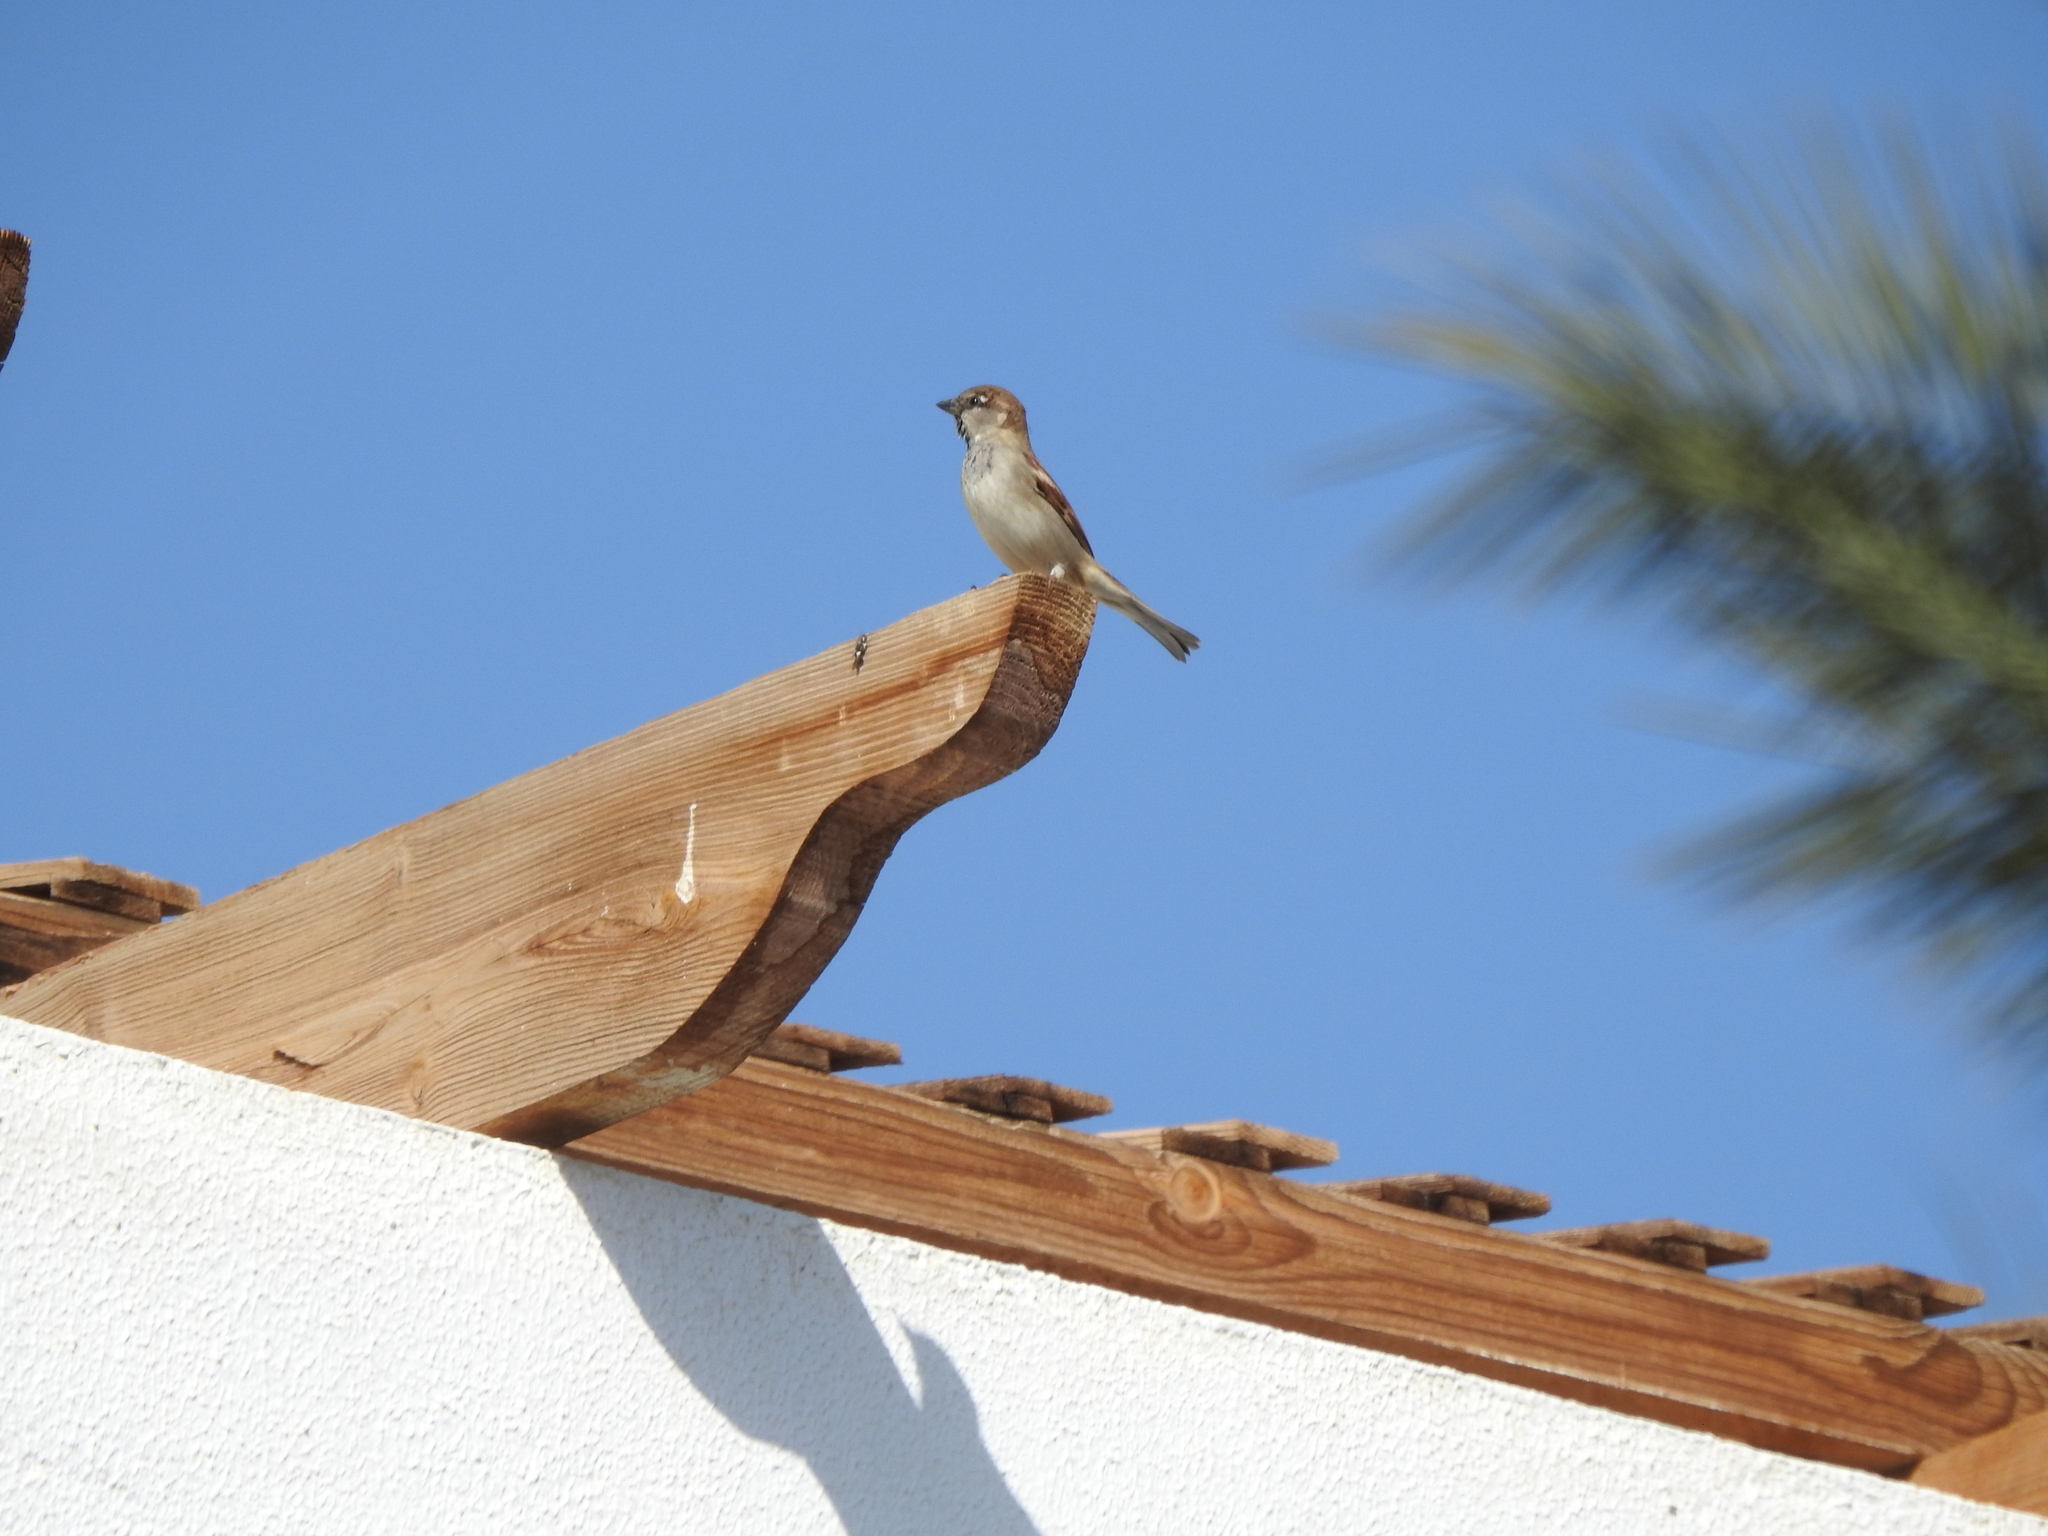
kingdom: Animalia
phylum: Chordata
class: Aves
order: Passeriformes
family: Passeridae
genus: Passer
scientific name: Passer domesticus
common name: House sparrow
